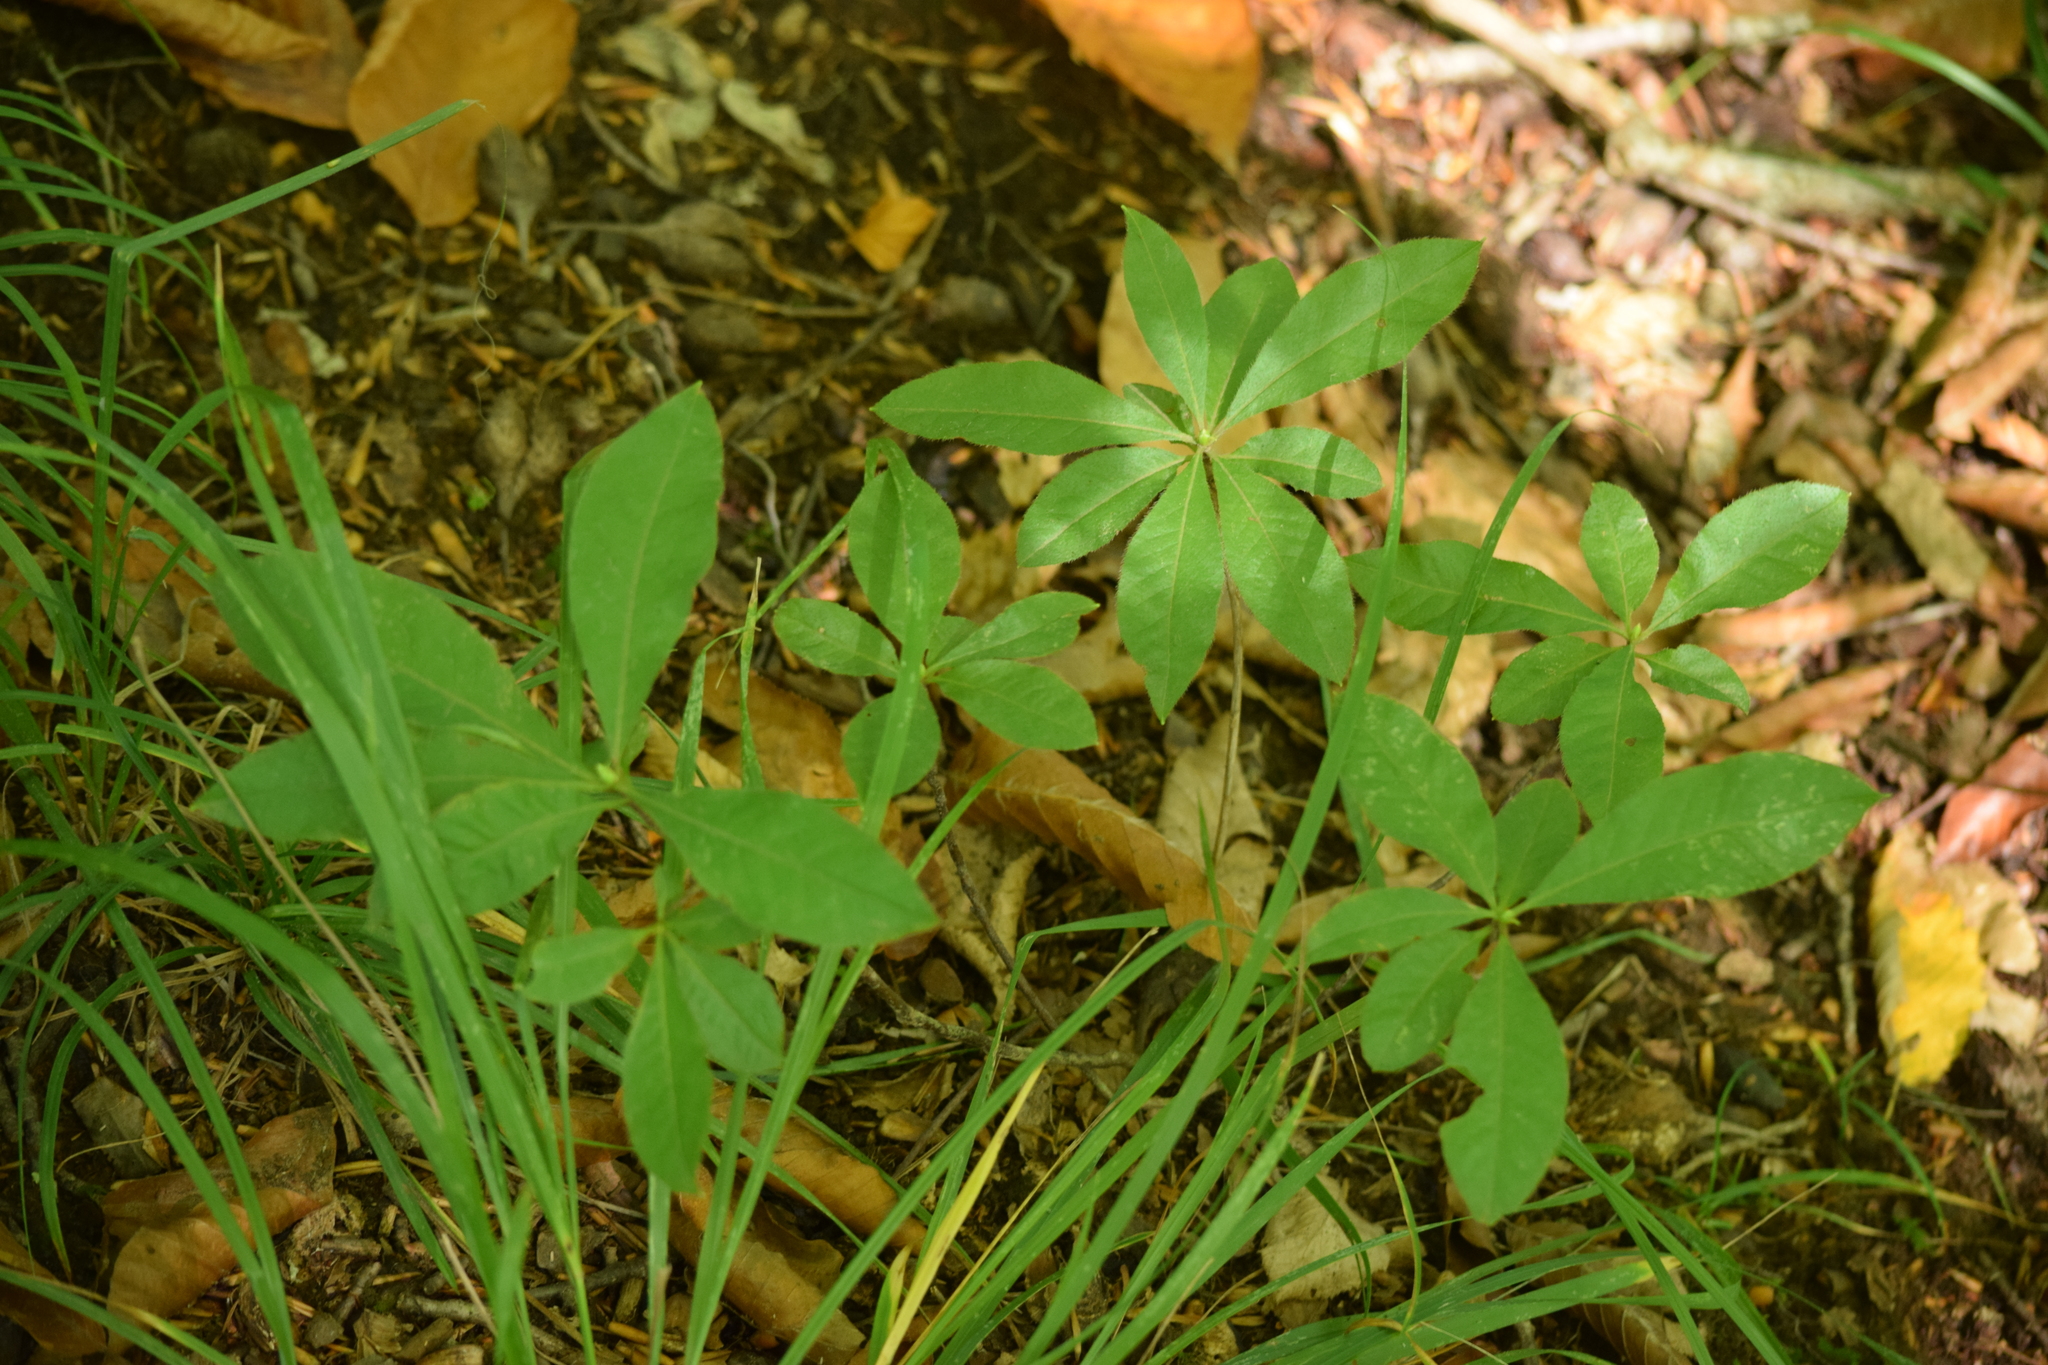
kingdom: Plantae
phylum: Tracheophyta
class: Magnoliopsida
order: Ericales
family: Ericaceae
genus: Rhododendron
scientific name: Rhododendron luteum
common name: Yellow azalea
